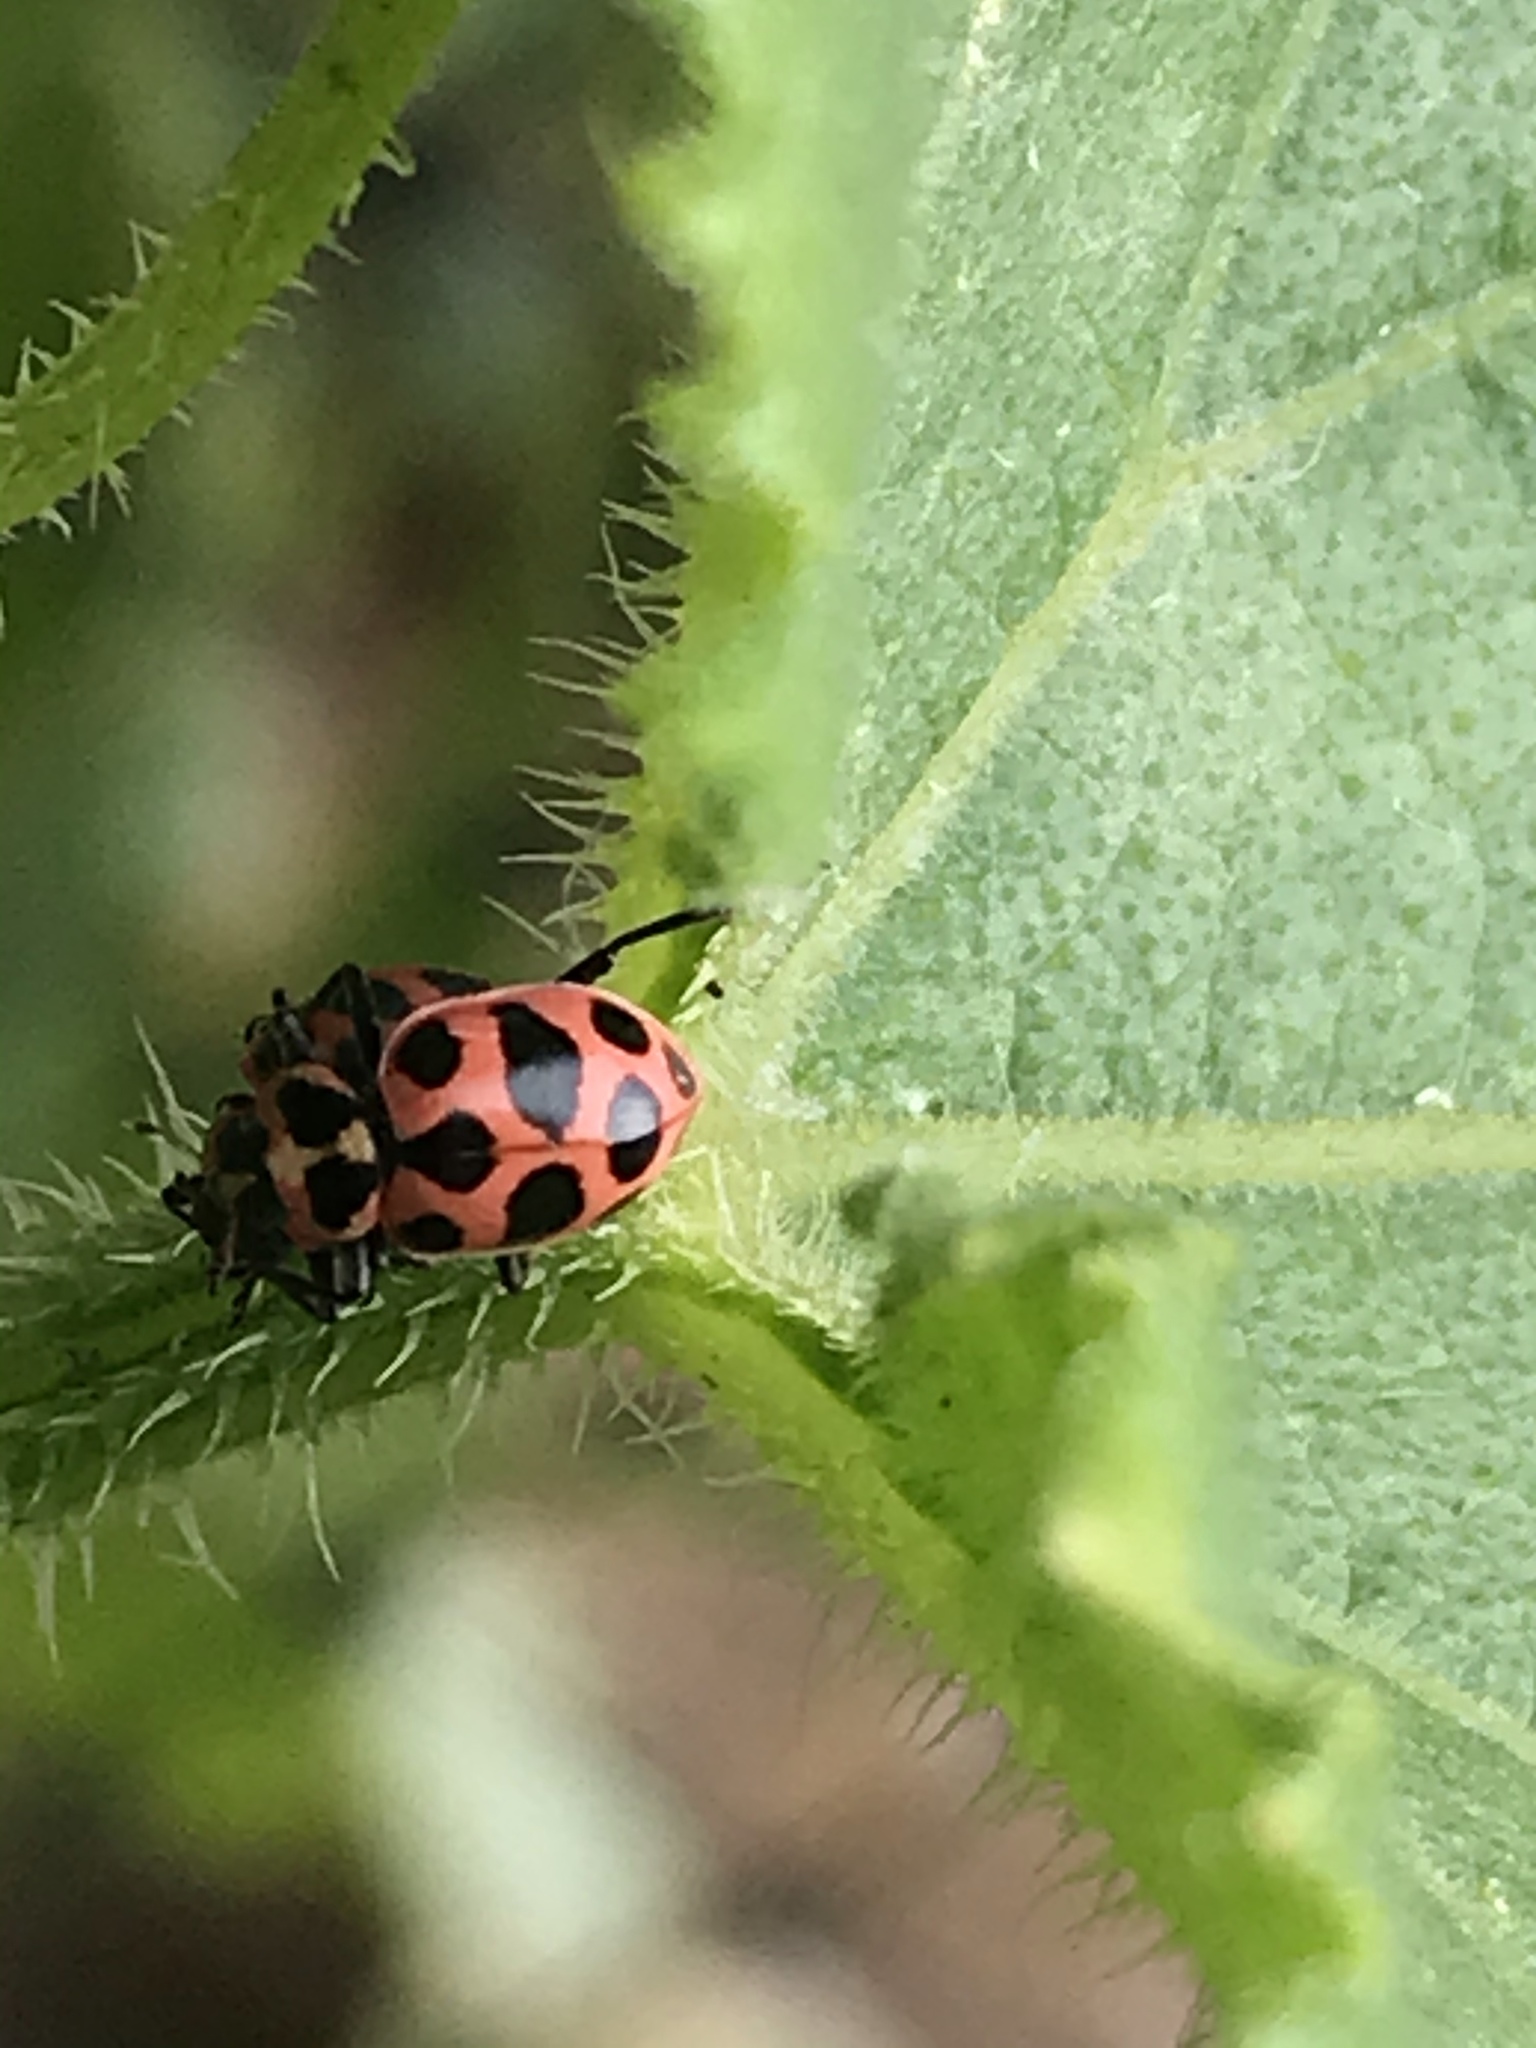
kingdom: Animalia
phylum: Arthropoda
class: Insecta
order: Coleoptera
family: Coccinellidae
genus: Coleomegilla
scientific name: Coleomegilla maculata
